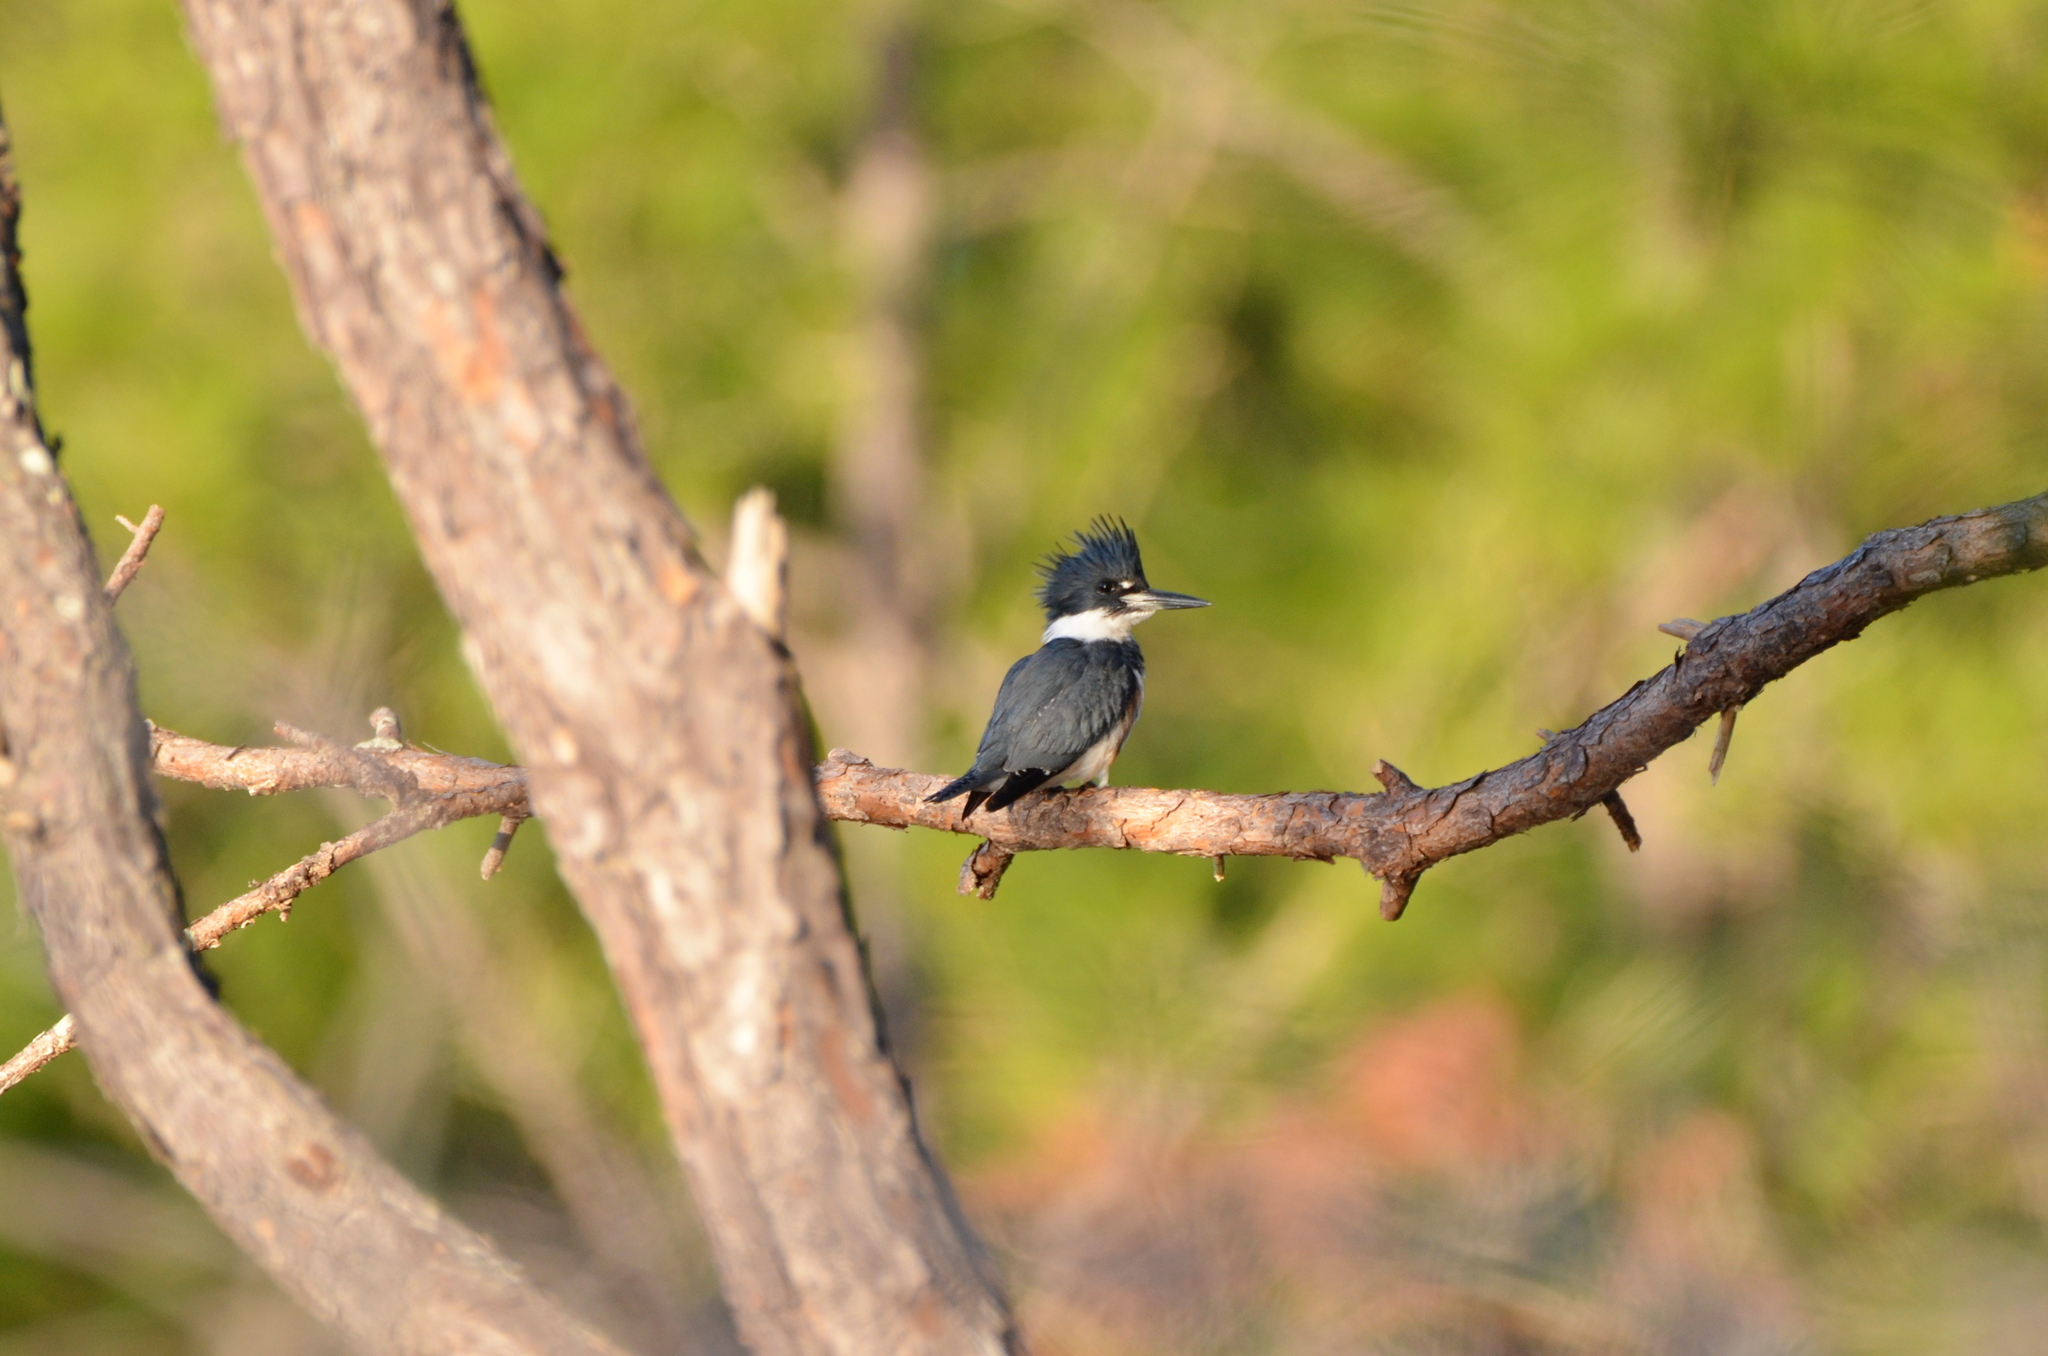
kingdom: Animalia
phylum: Chordata
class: Aves
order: Coraciiformes
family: Alcedinidae
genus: Megaceryle
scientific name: Megaceryle alcyon
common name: Belted kingfisher
